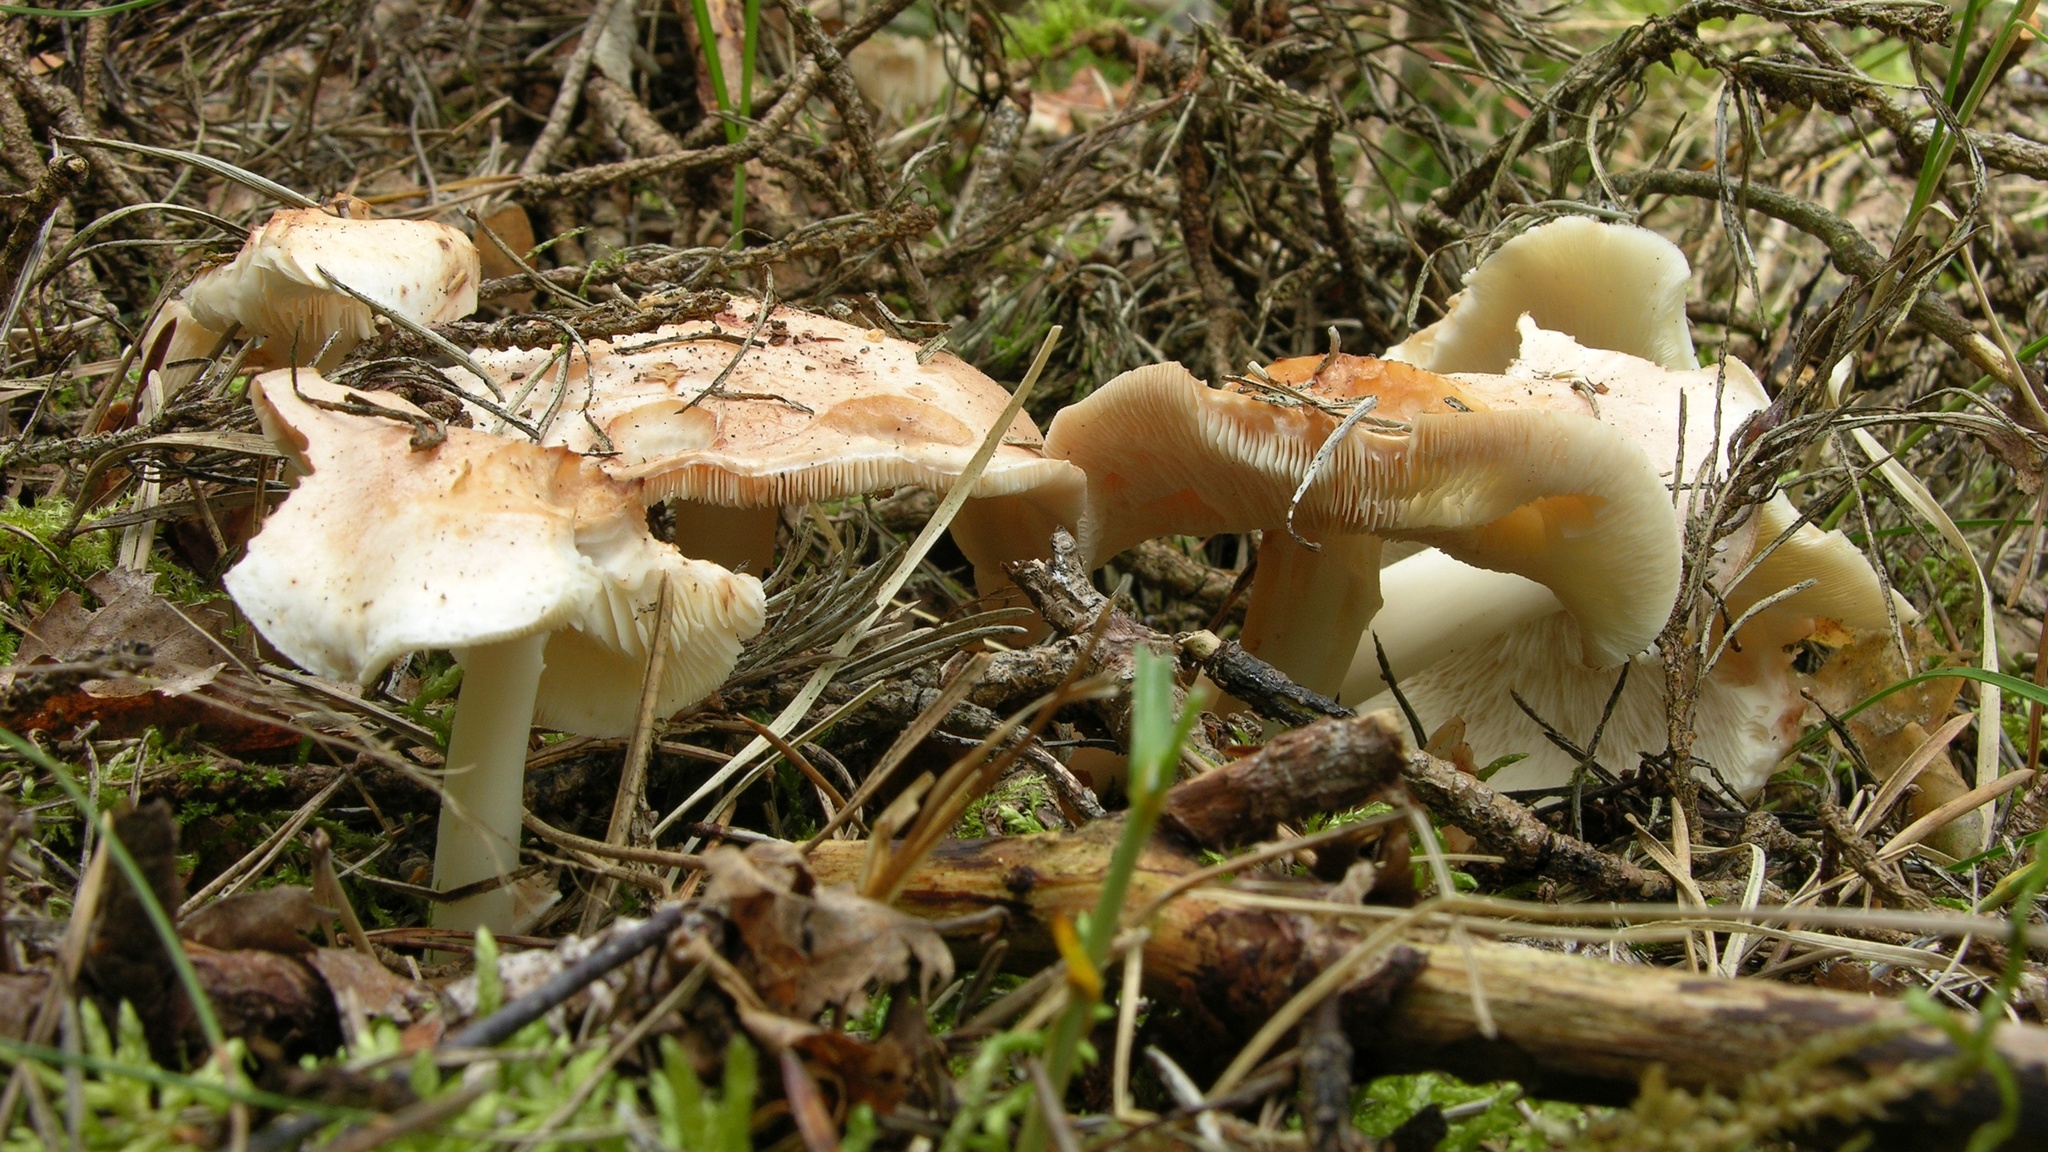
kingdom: Fungi
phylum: Basidiomycota
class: Agaricomycetes
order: Agaricales
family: Omphalotaceae
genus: Rhodocollybia
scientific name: Rhodocollybia maculata
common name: Spotted tough-shank
